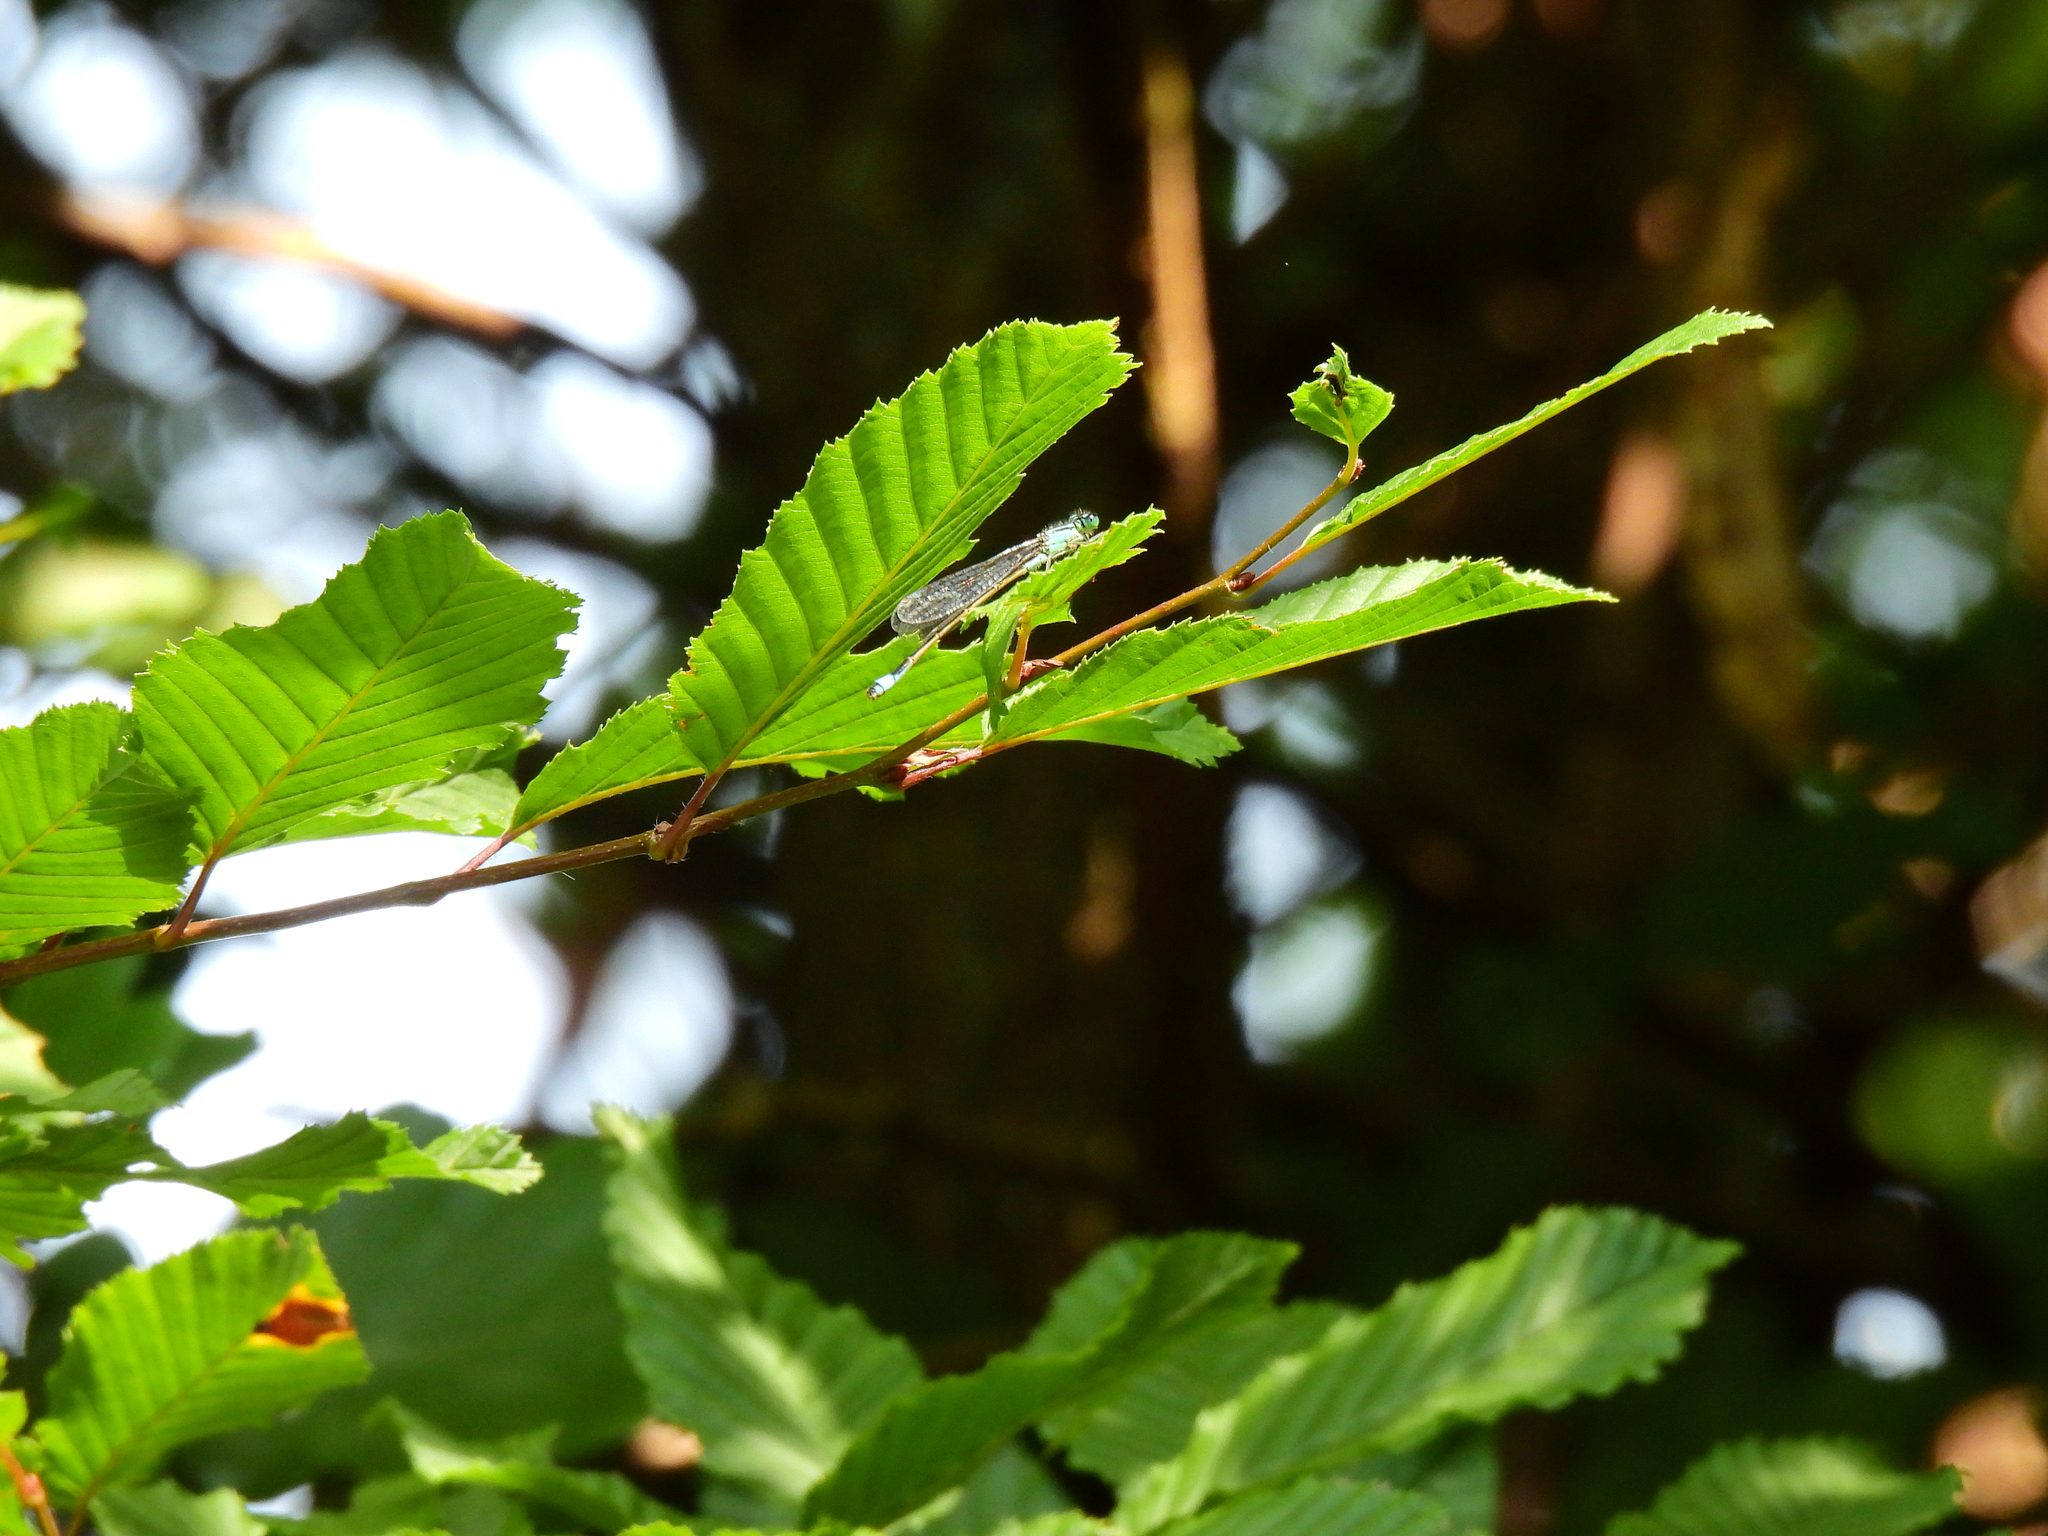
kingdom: Animalia
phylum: Arthropoda
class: Insecta
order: Odonata
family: Coenagrionidae
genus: Ischnura
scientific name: Ischnura elegans
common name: Blue-tailed damselfly
